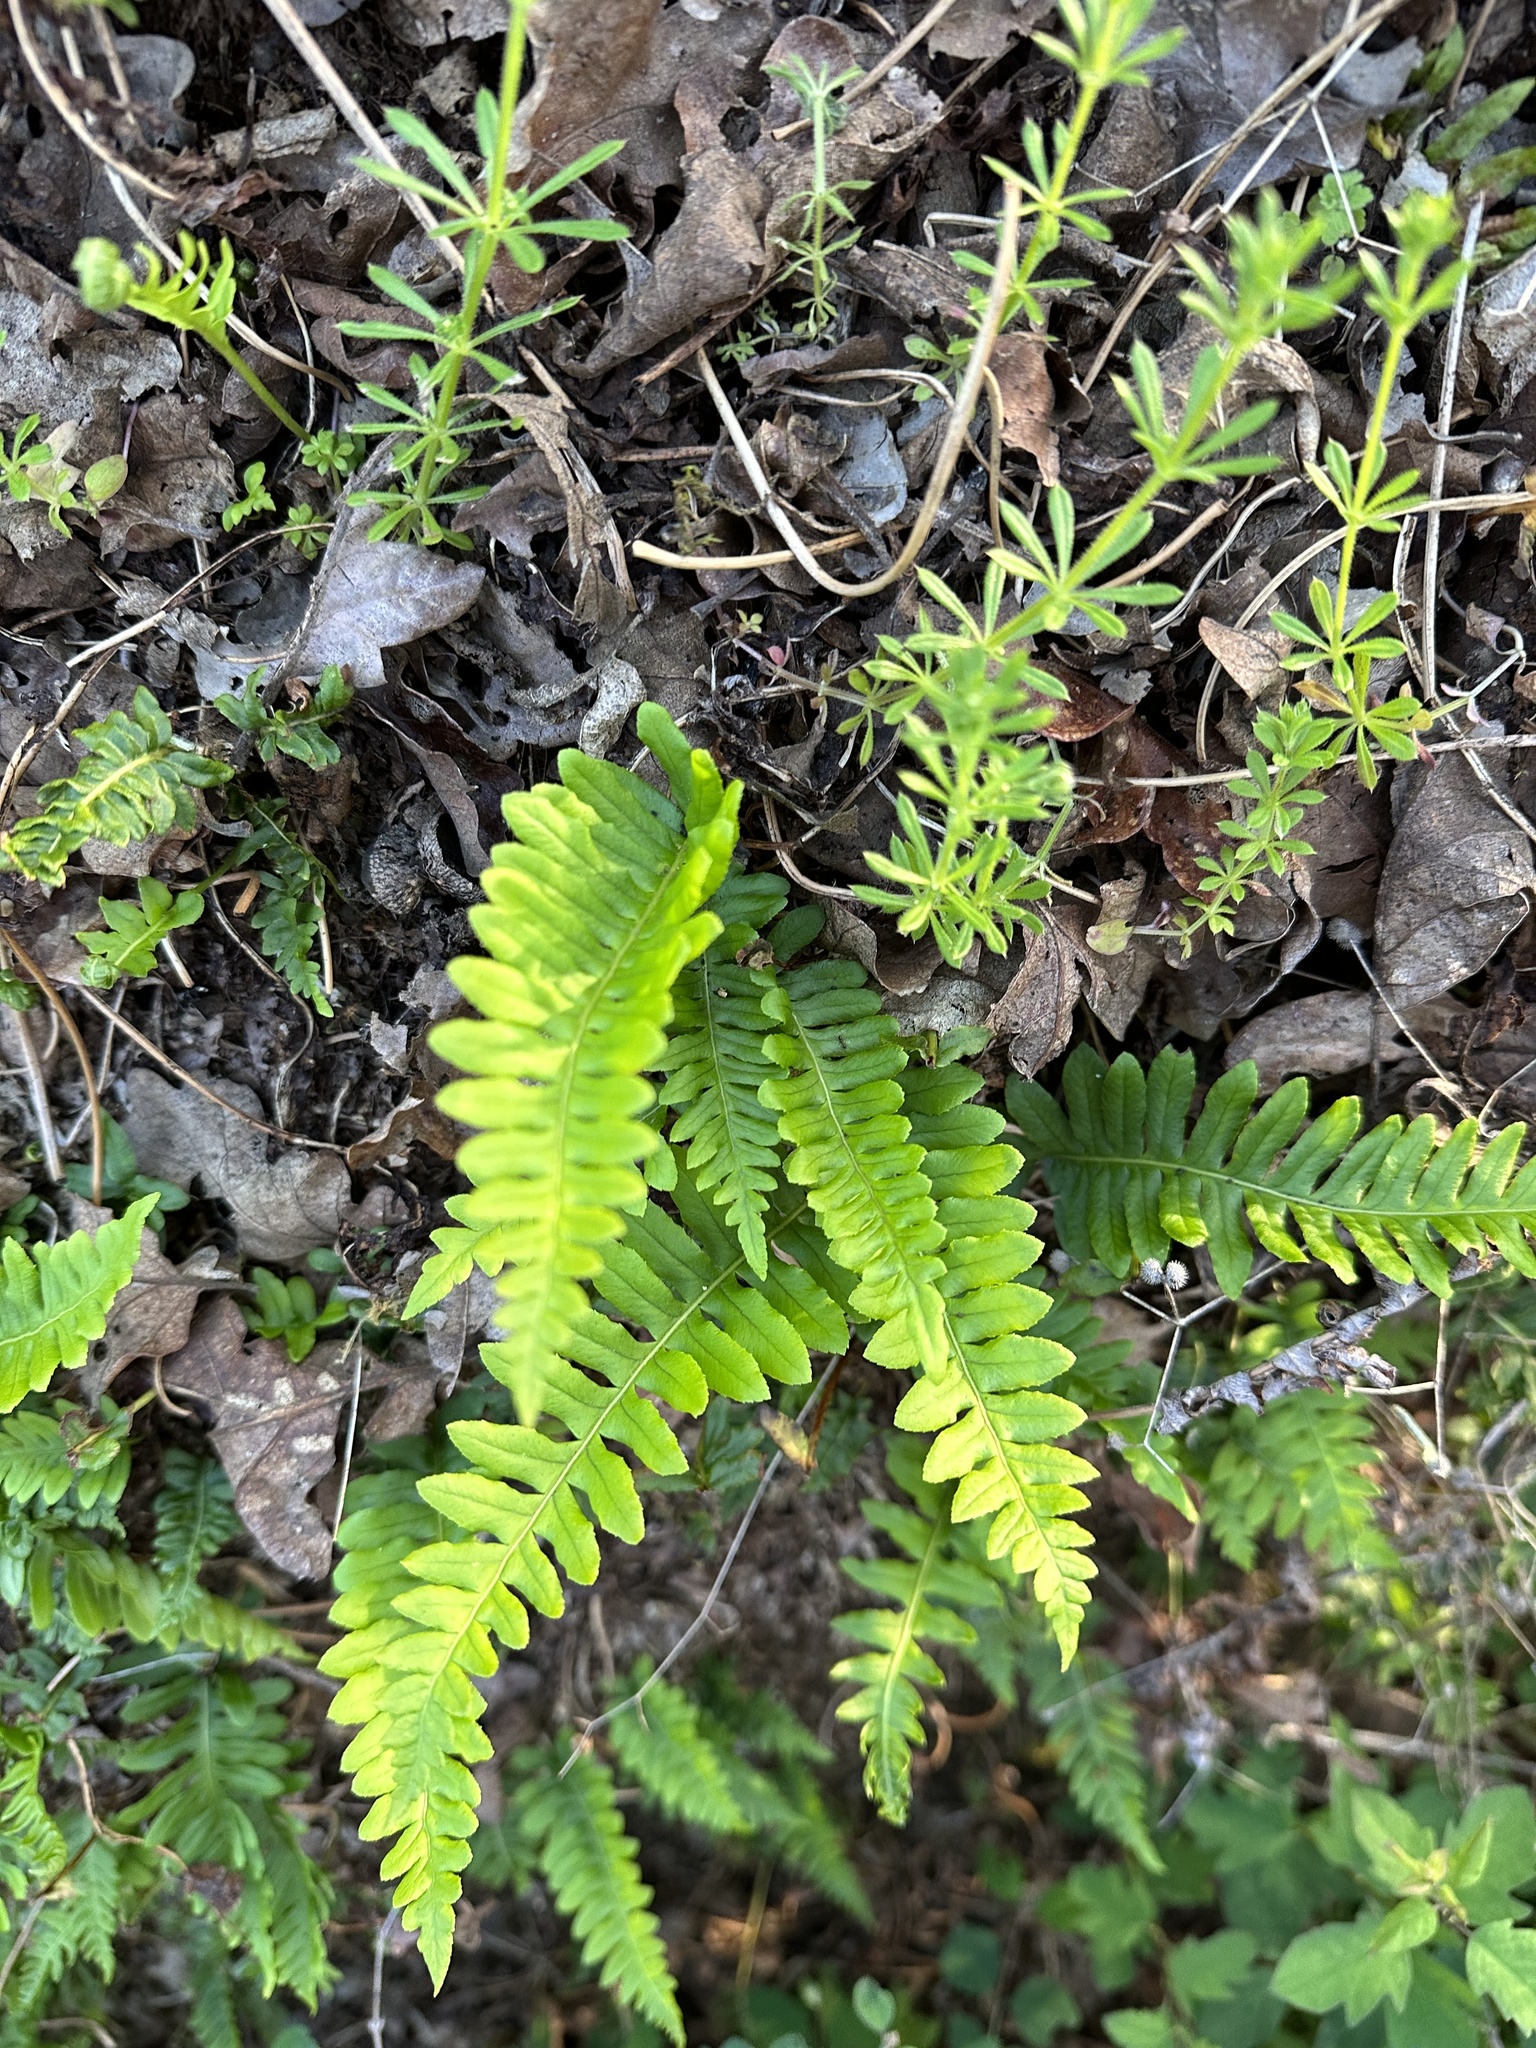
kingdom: Plantae
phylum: Tracheophyta
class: Polypodiopsida
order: Polypodiales
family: Polypodiaceae
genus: Polypodium
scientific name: Polypodium glycyrrhiza
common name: Licorice fern
